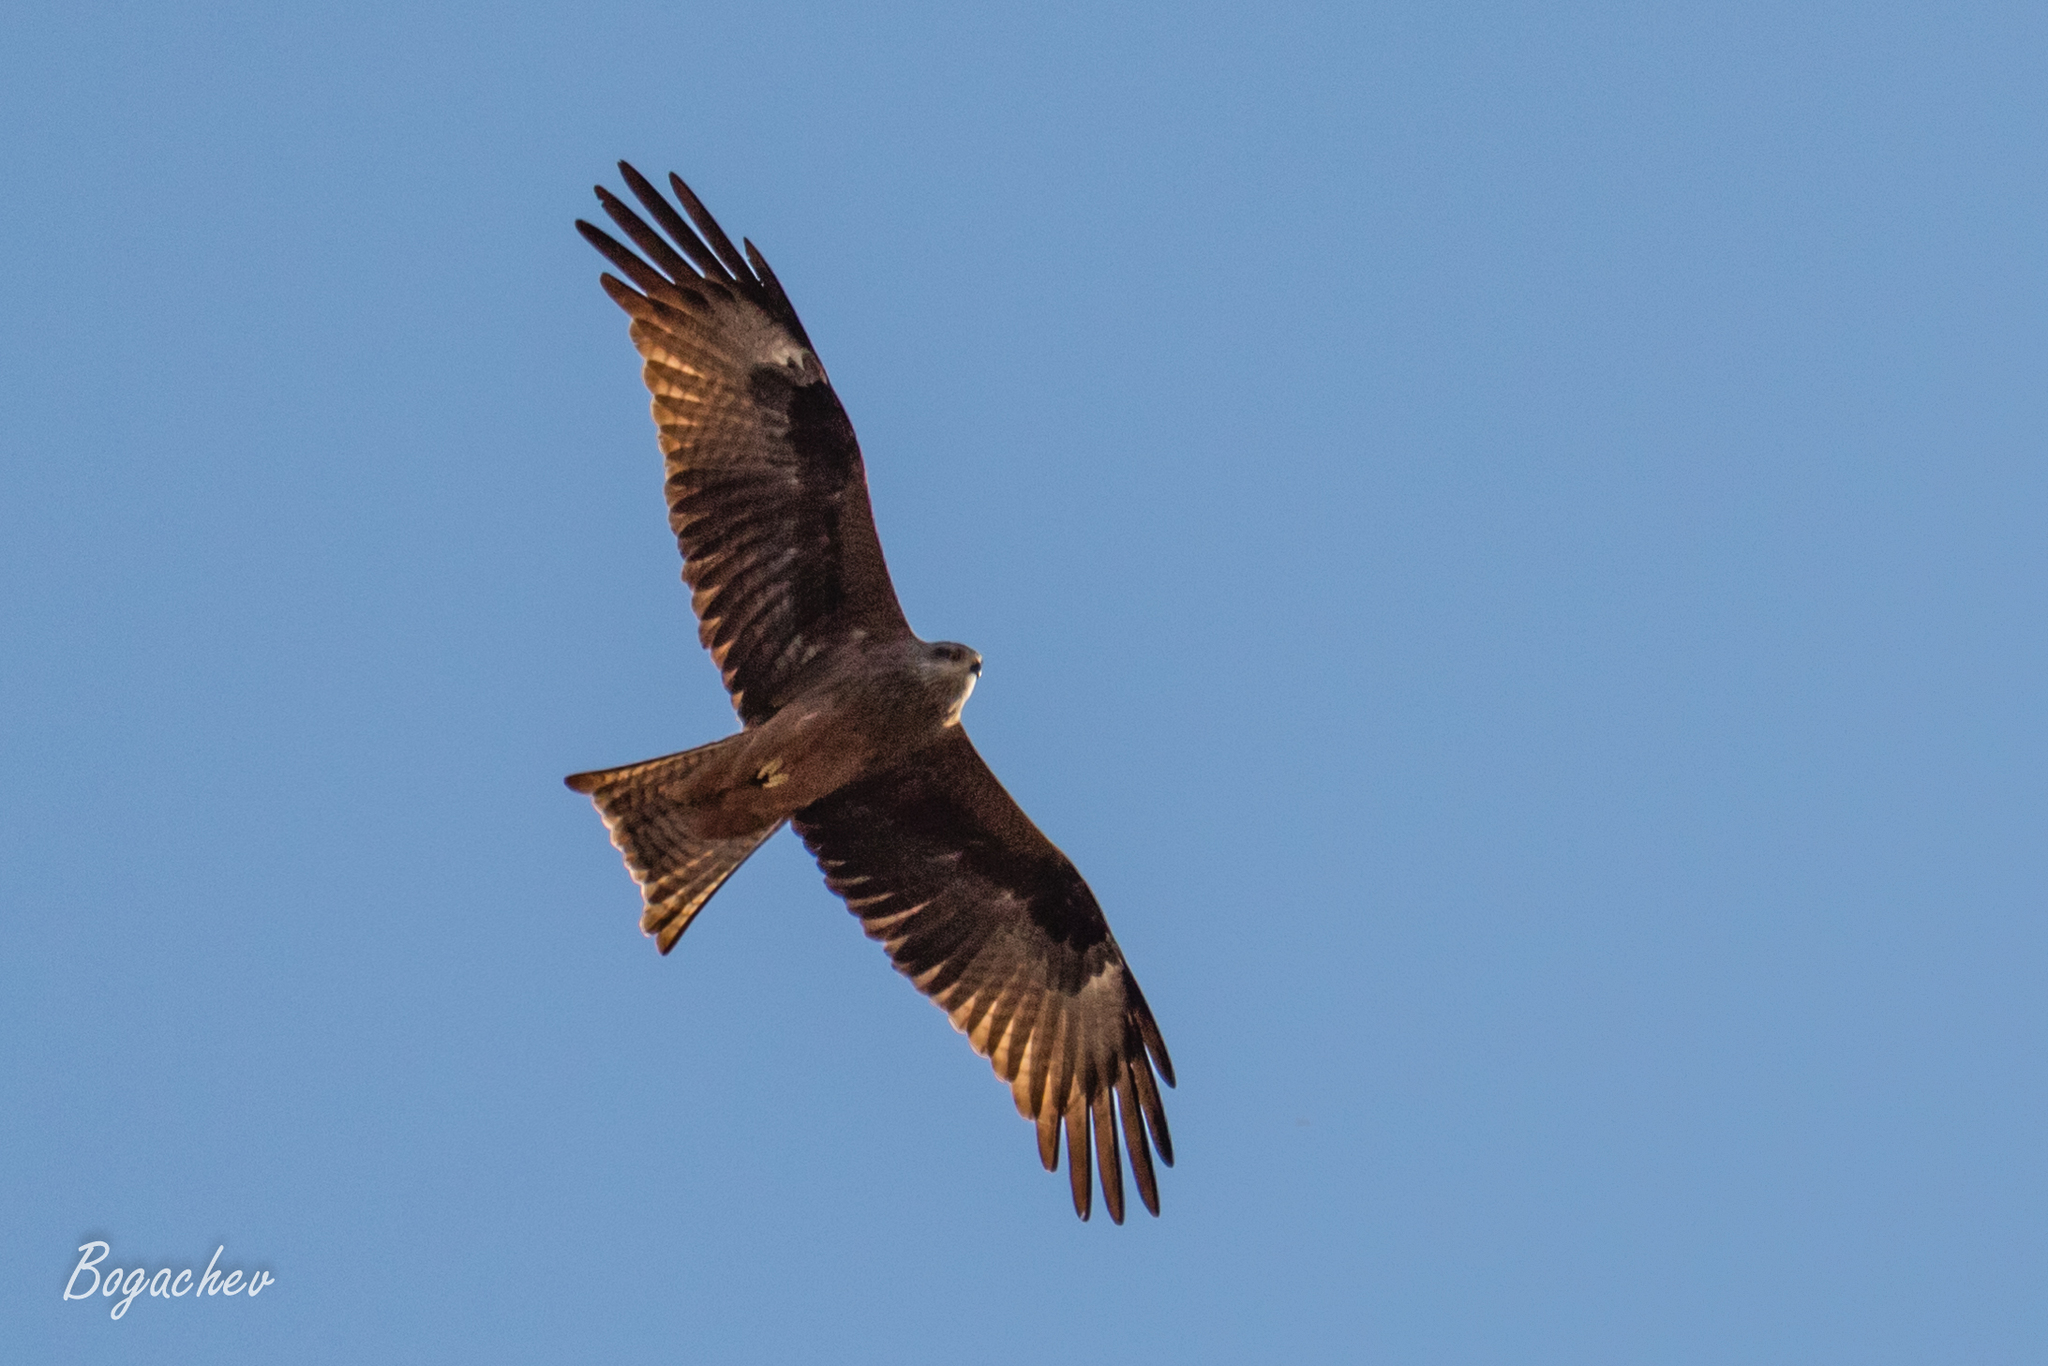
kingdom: Animalia
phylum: Chordata
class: Aves
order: Accipitriformes
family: Accipitridae
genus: Milvus
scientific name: Milvus migrans
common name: Black kite
